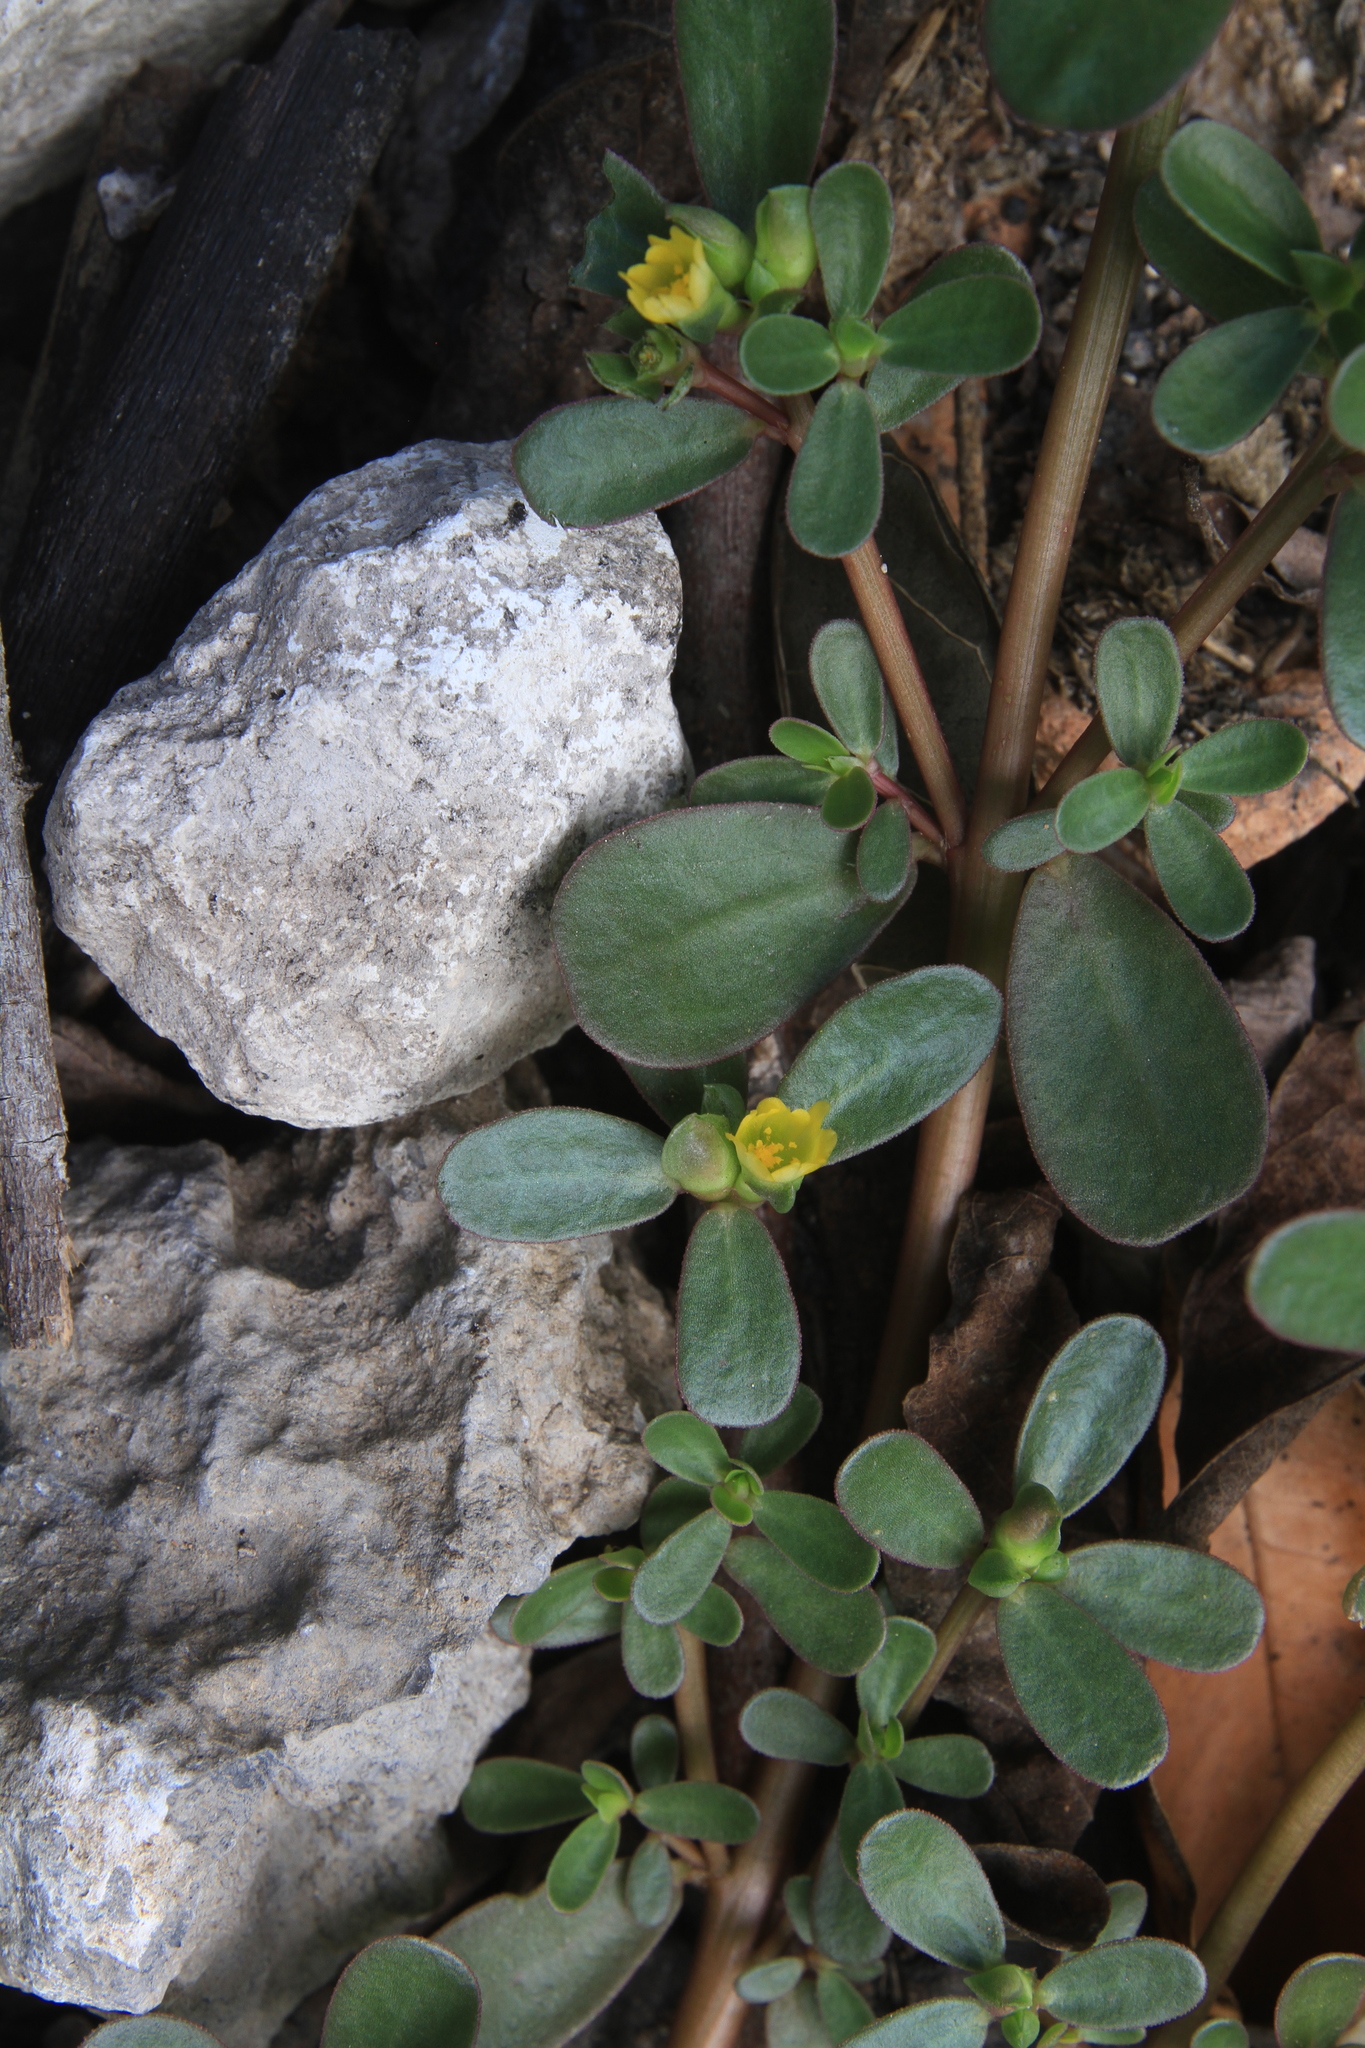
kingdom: Plantae
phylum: Tracheophyta
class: Magnoliopsida
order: Caryophyllales
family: Portulacaceae
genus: Portulaca
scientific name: Portulaca oleracea
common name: Common purslane
